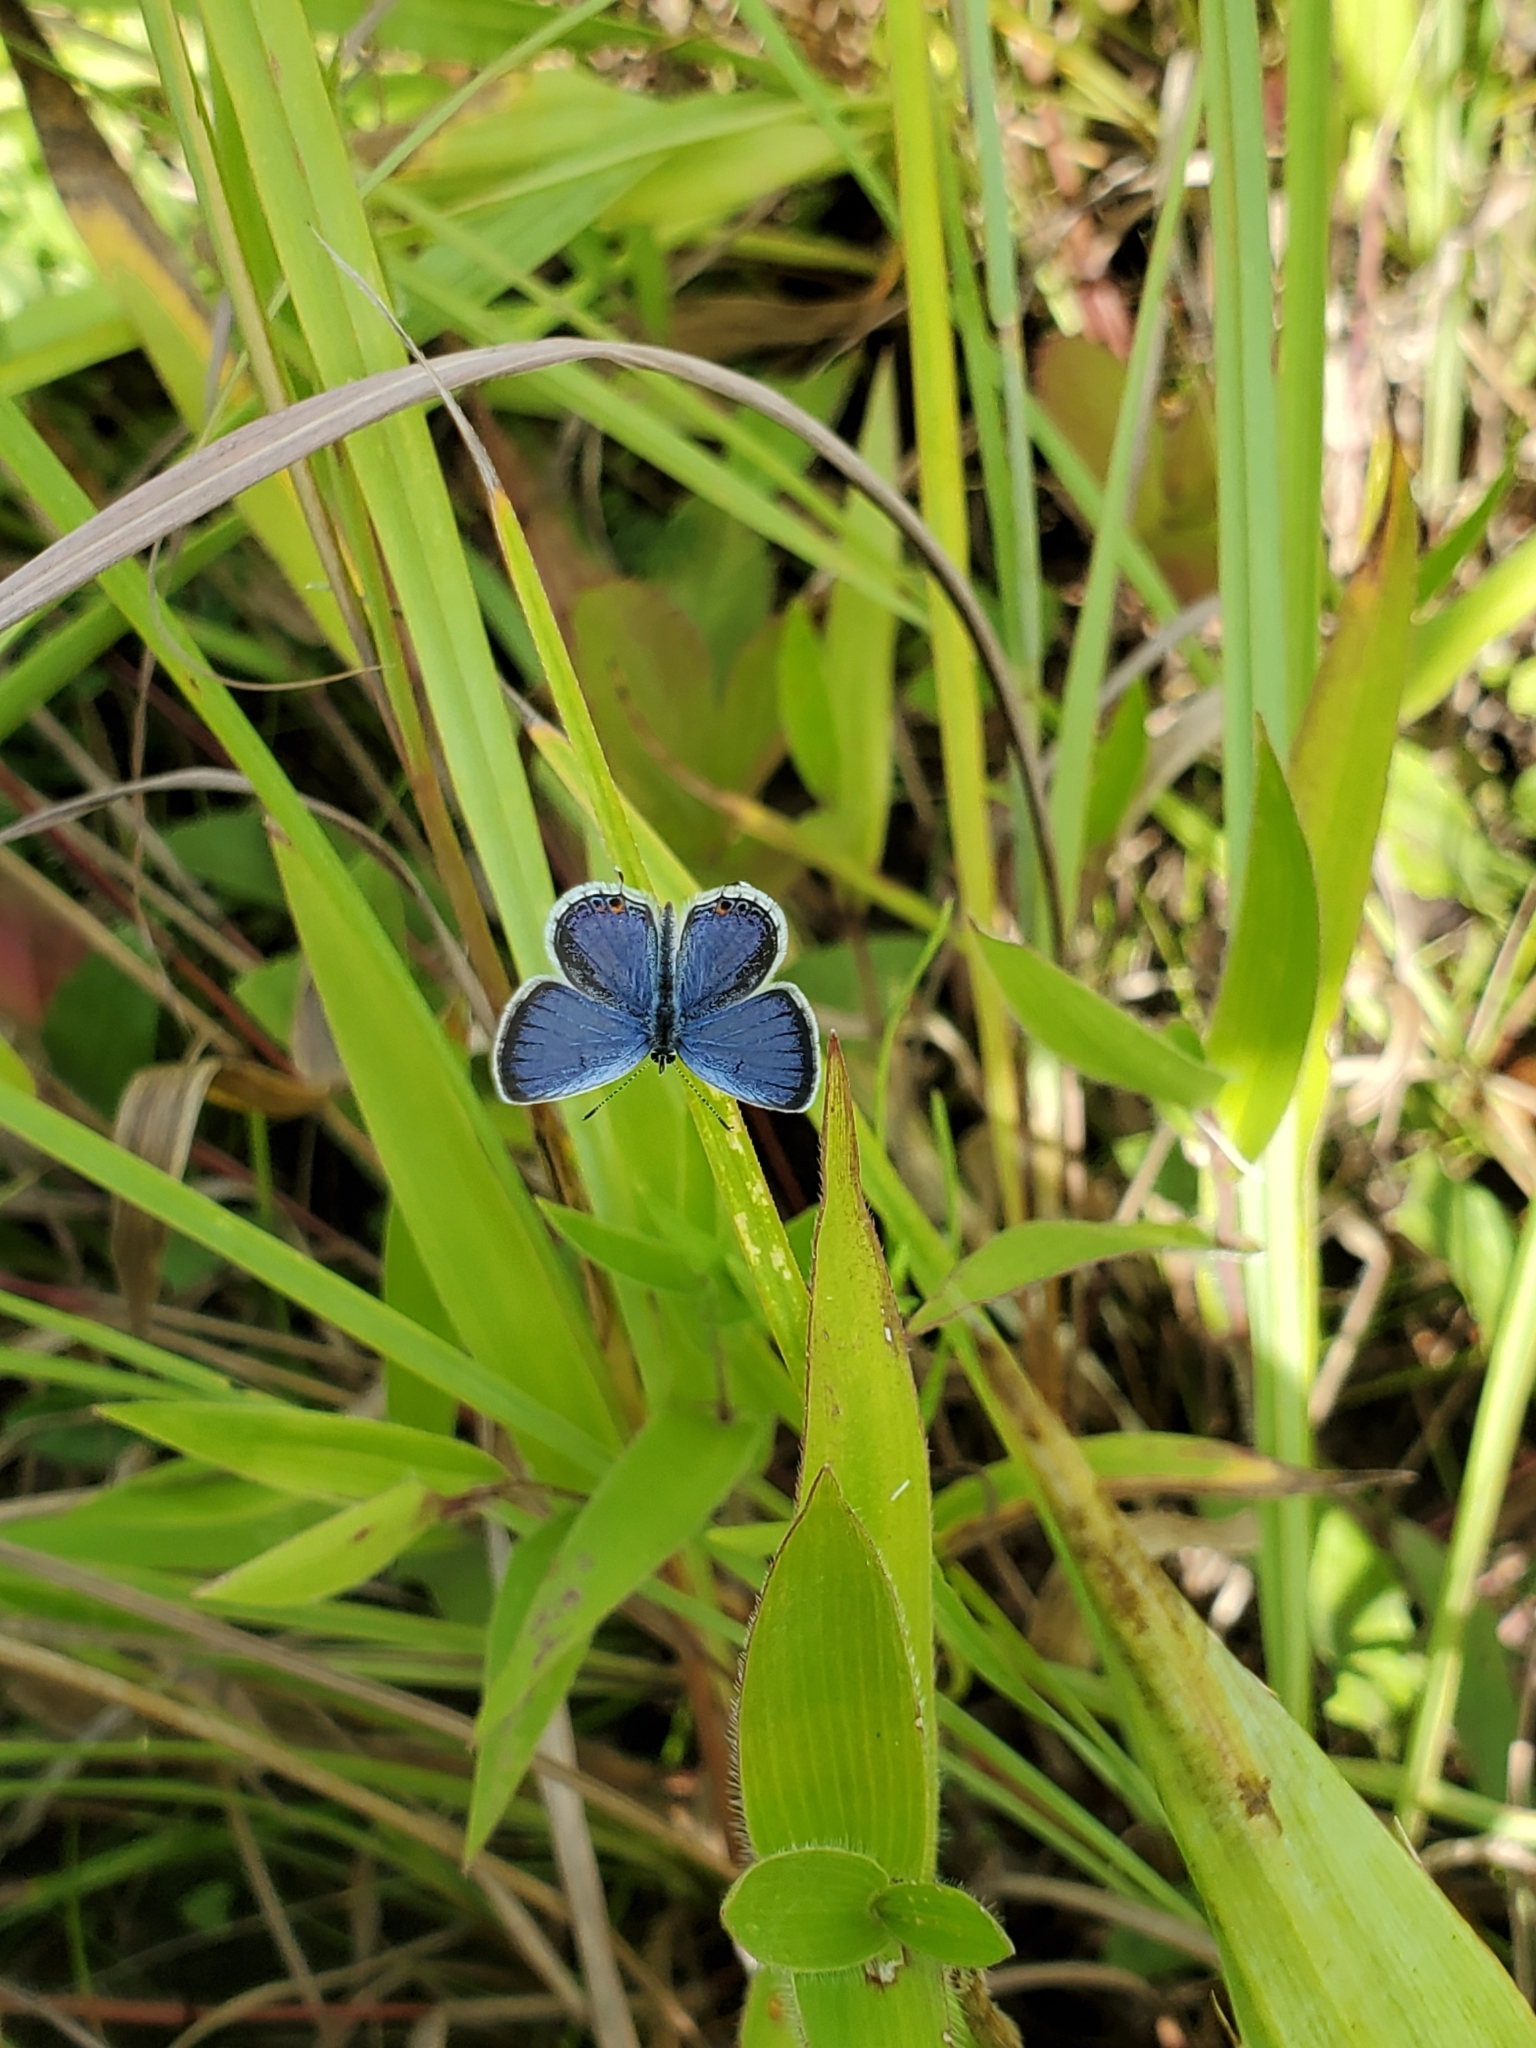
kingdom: Animalia
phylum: Arthropoda
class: Insecta
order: Lepidoptera
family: Lycaenidae
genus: Elkalyce
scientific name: Elkalyce comyntas
